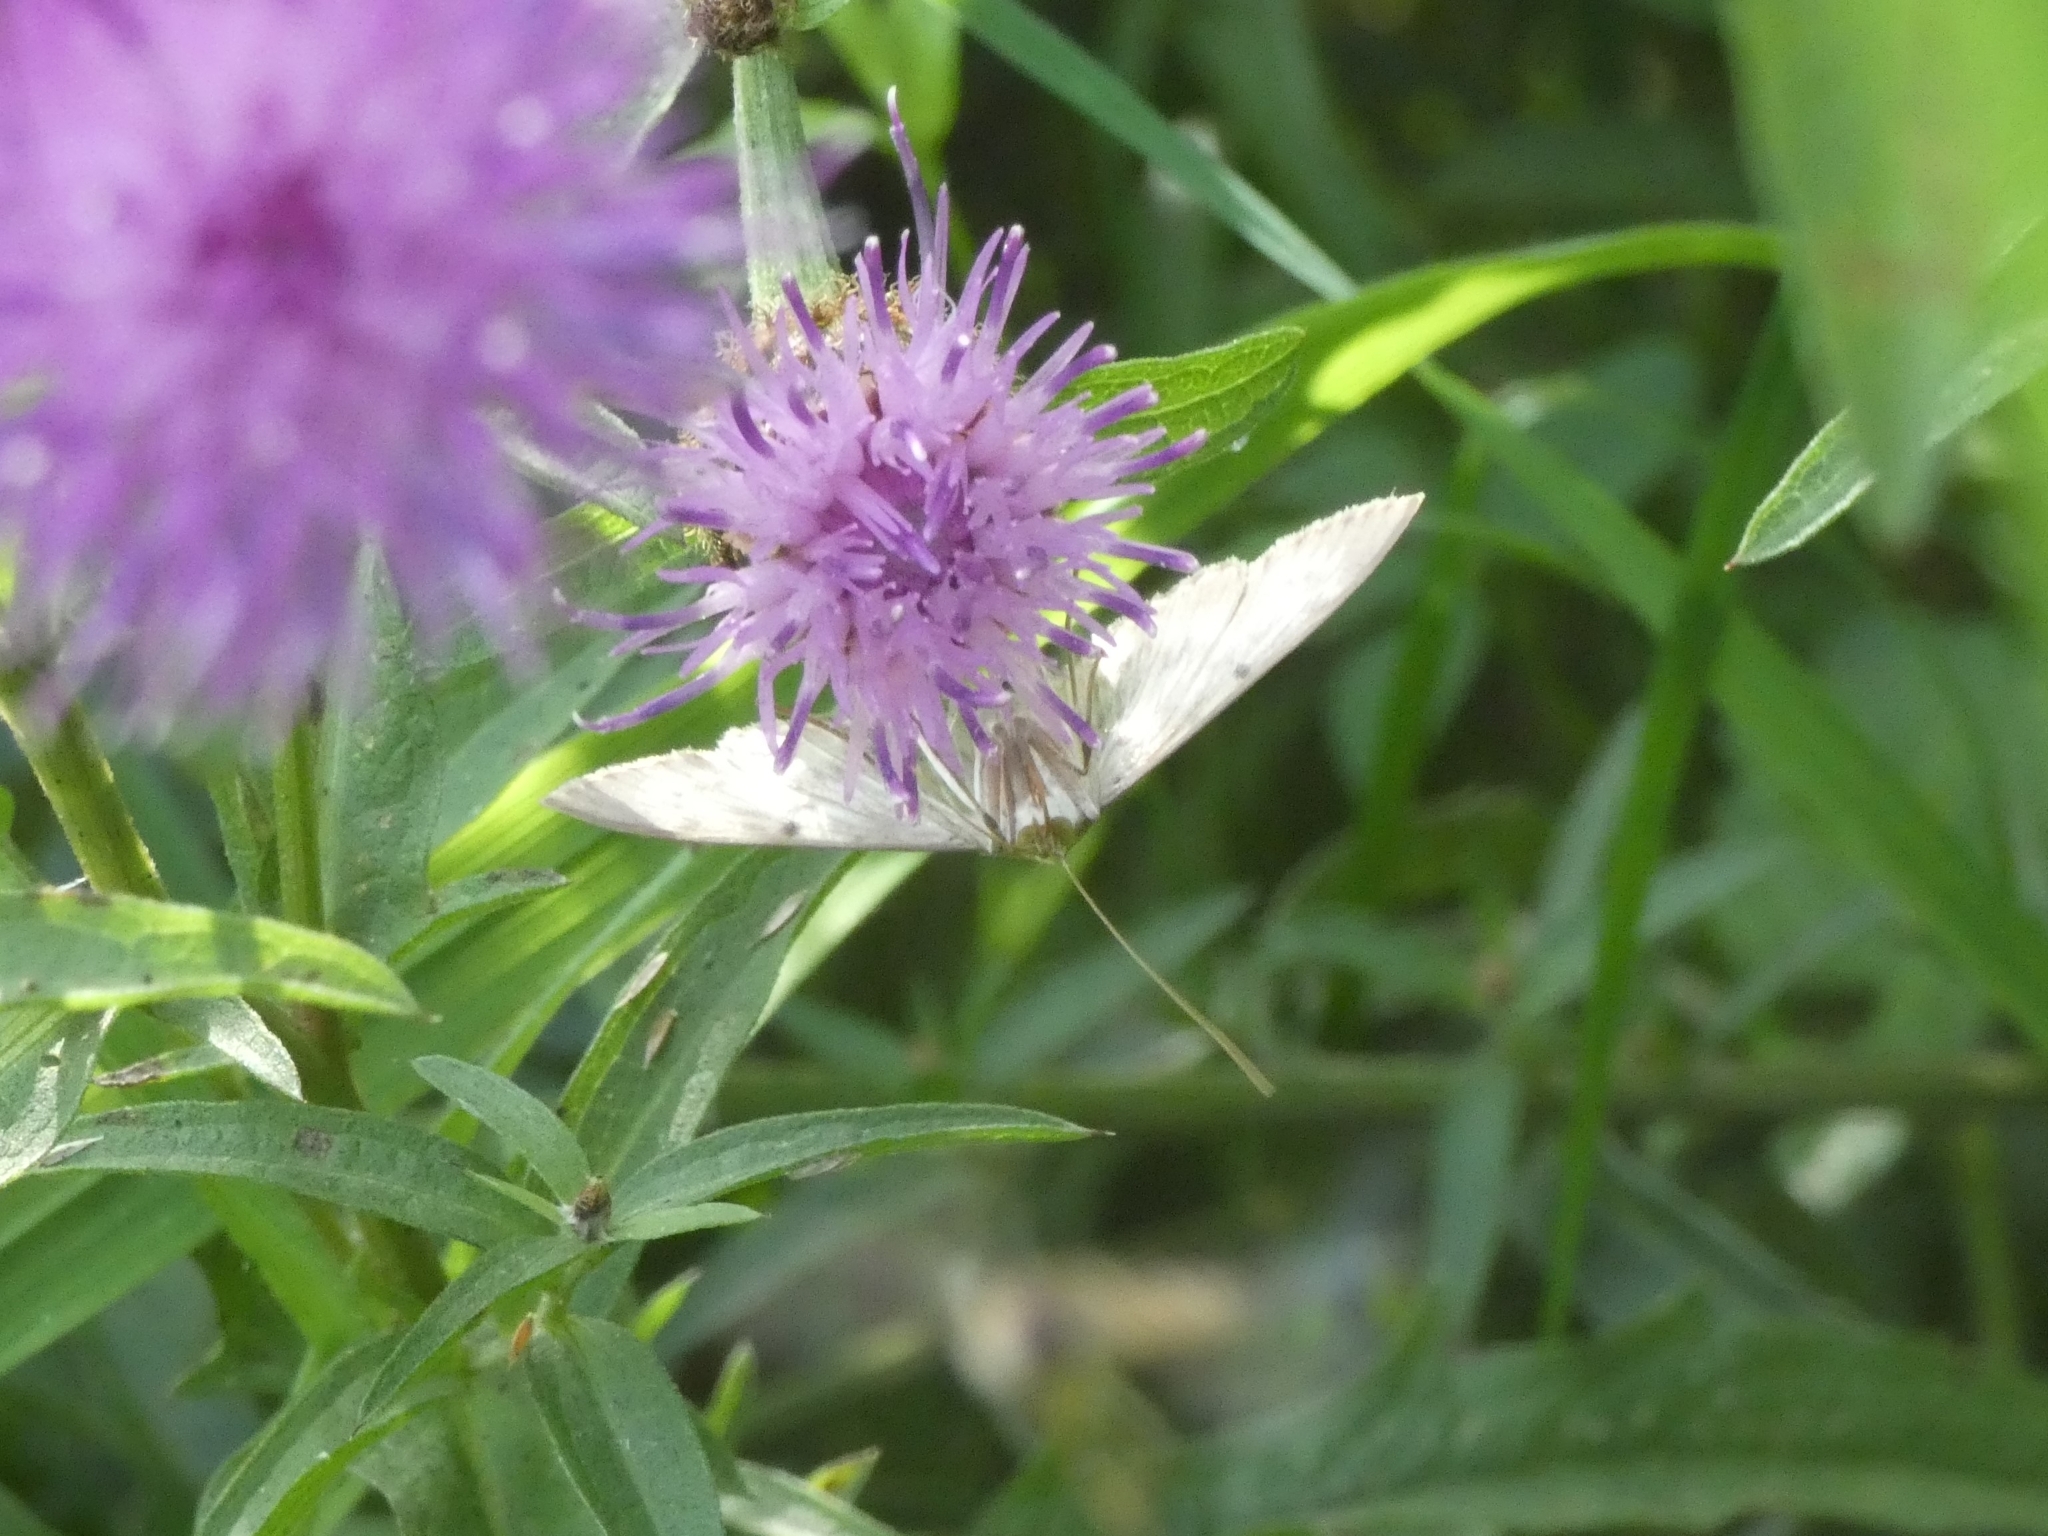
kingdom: Animalia
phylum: Arthropoda
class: Insecta
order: Lepidoptera
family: Crambidae
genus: Patania
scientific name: Patania ruralis
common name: Mother of pearl
